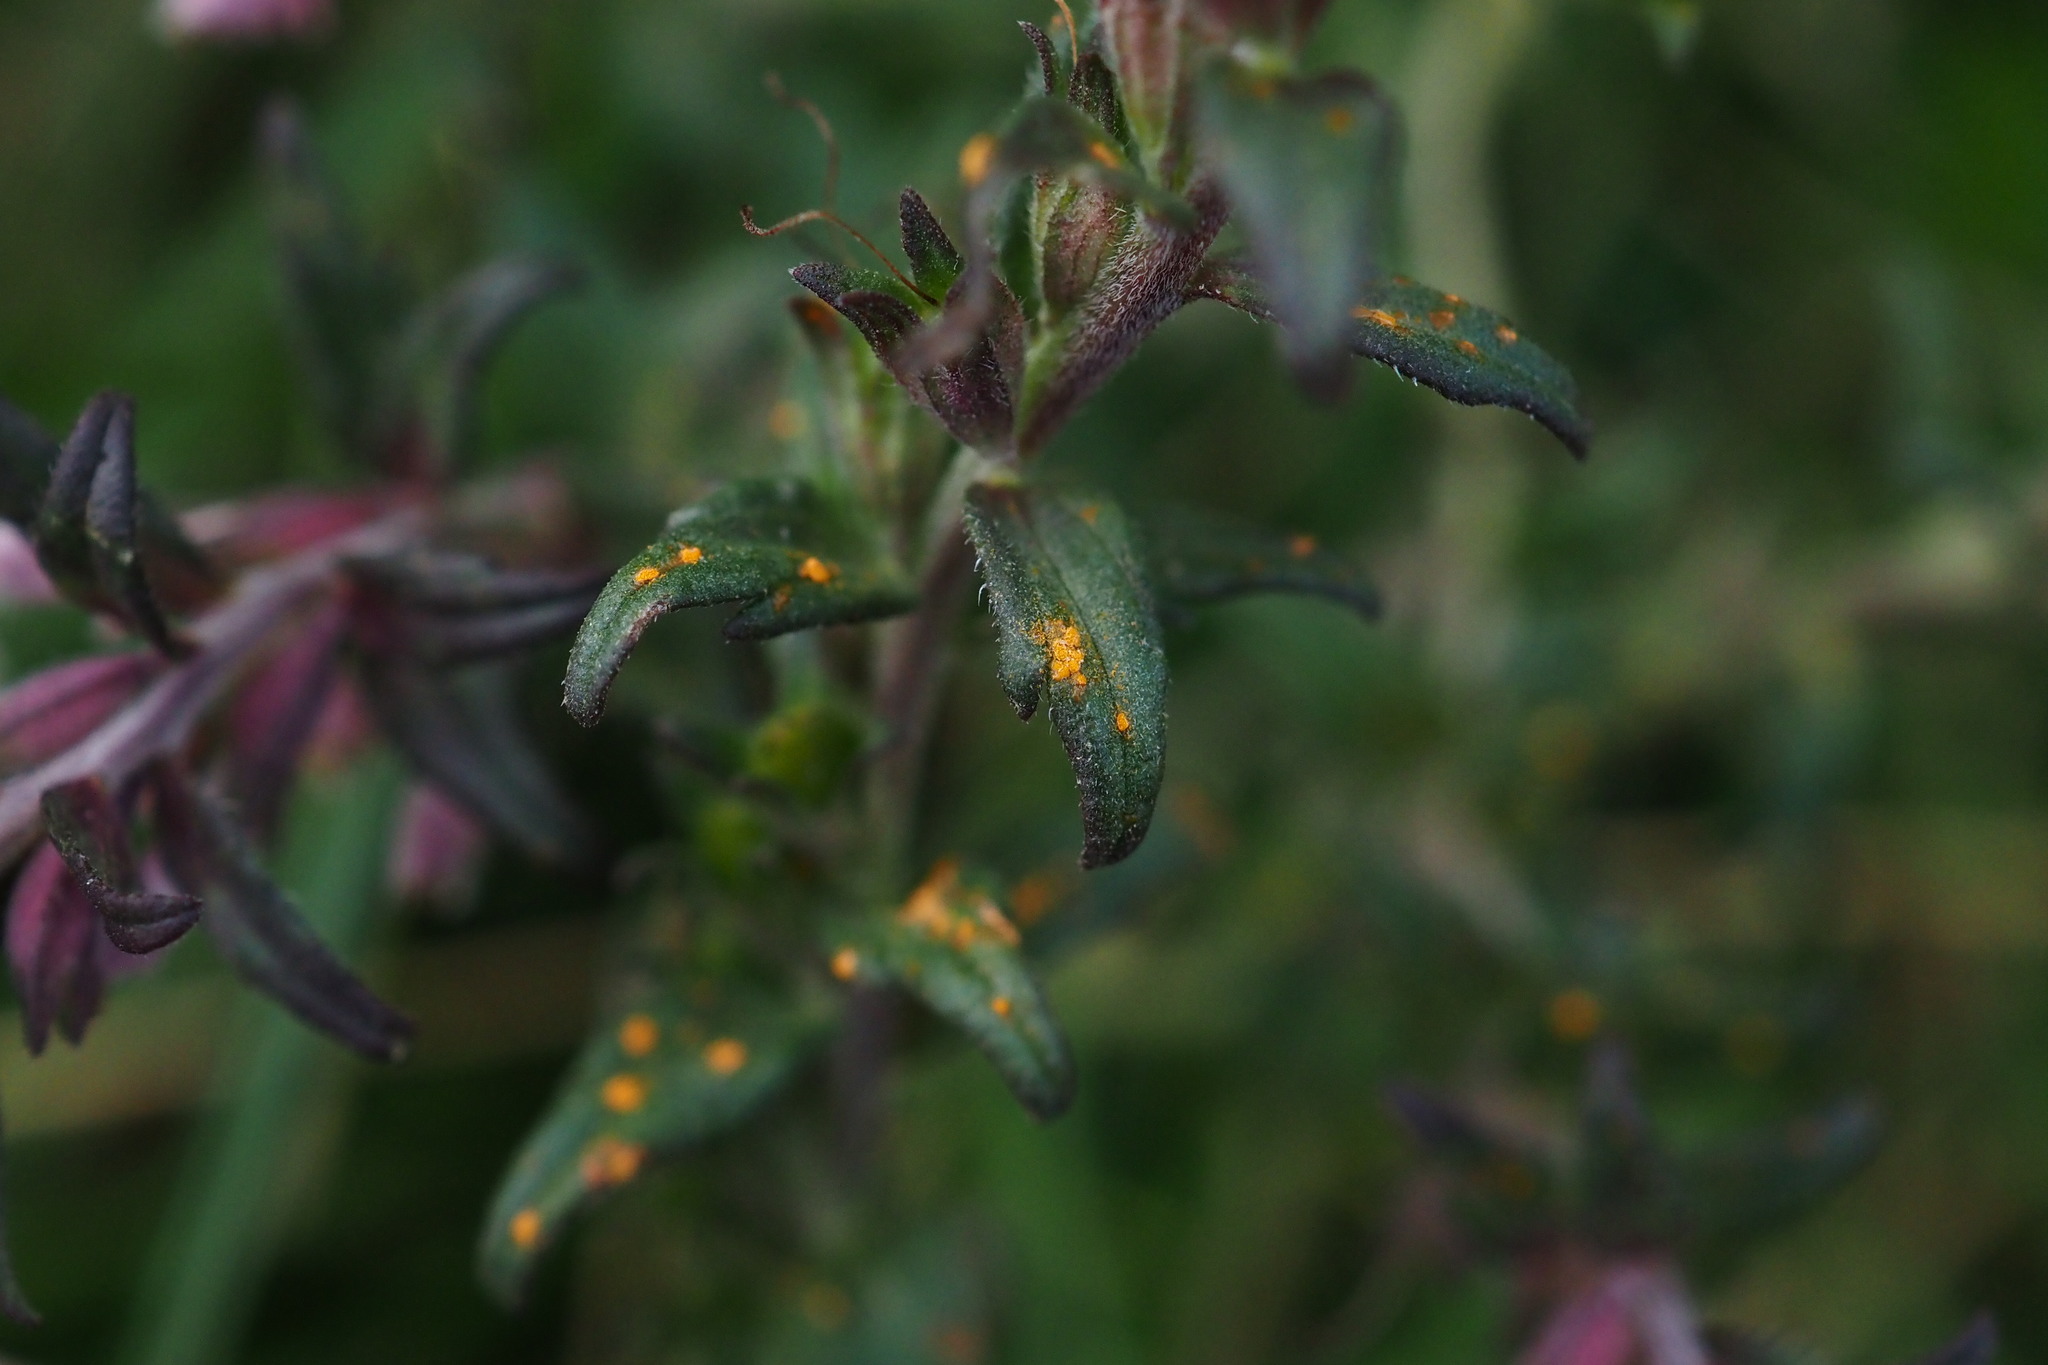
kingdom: Fungi
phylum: Basidiomycota
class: Pucciniomycetes
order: Pucciniales
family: Coleosporiaceae
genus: Coleosporium
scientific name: Coleosporium tussilaginis
